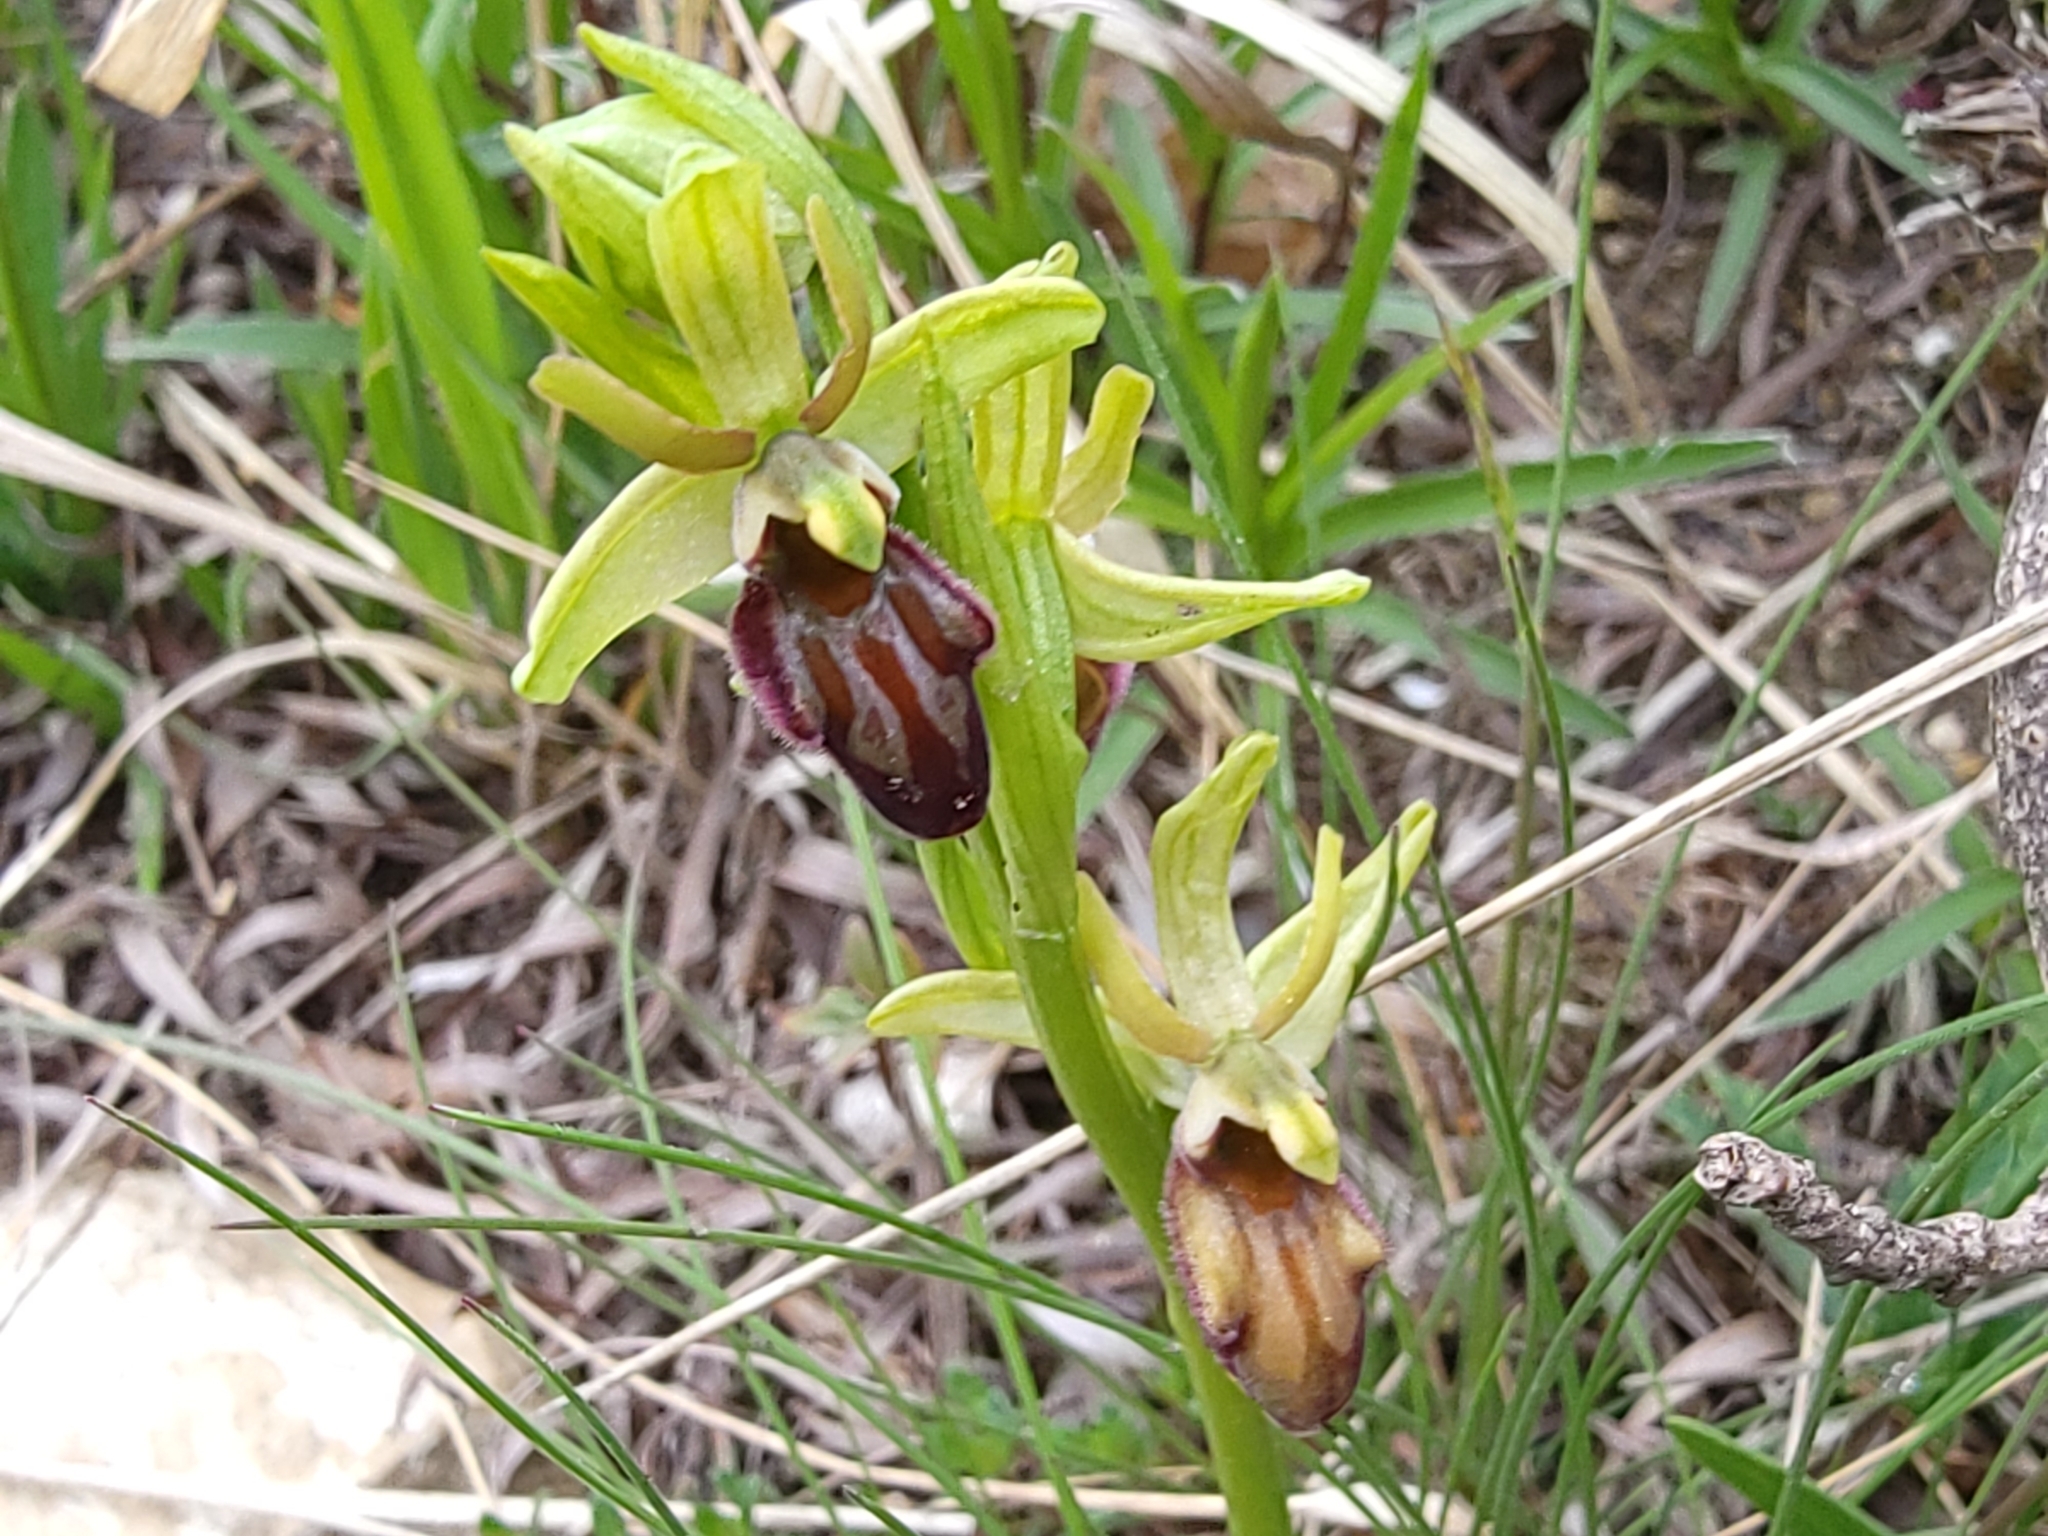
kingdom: Plantae
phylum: Tracheophyta
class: Liliopsida
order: Asparagales
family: Orchidaceae
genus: Ophrys
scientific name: Ophrys sphegodes
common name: Early spider-orchid
